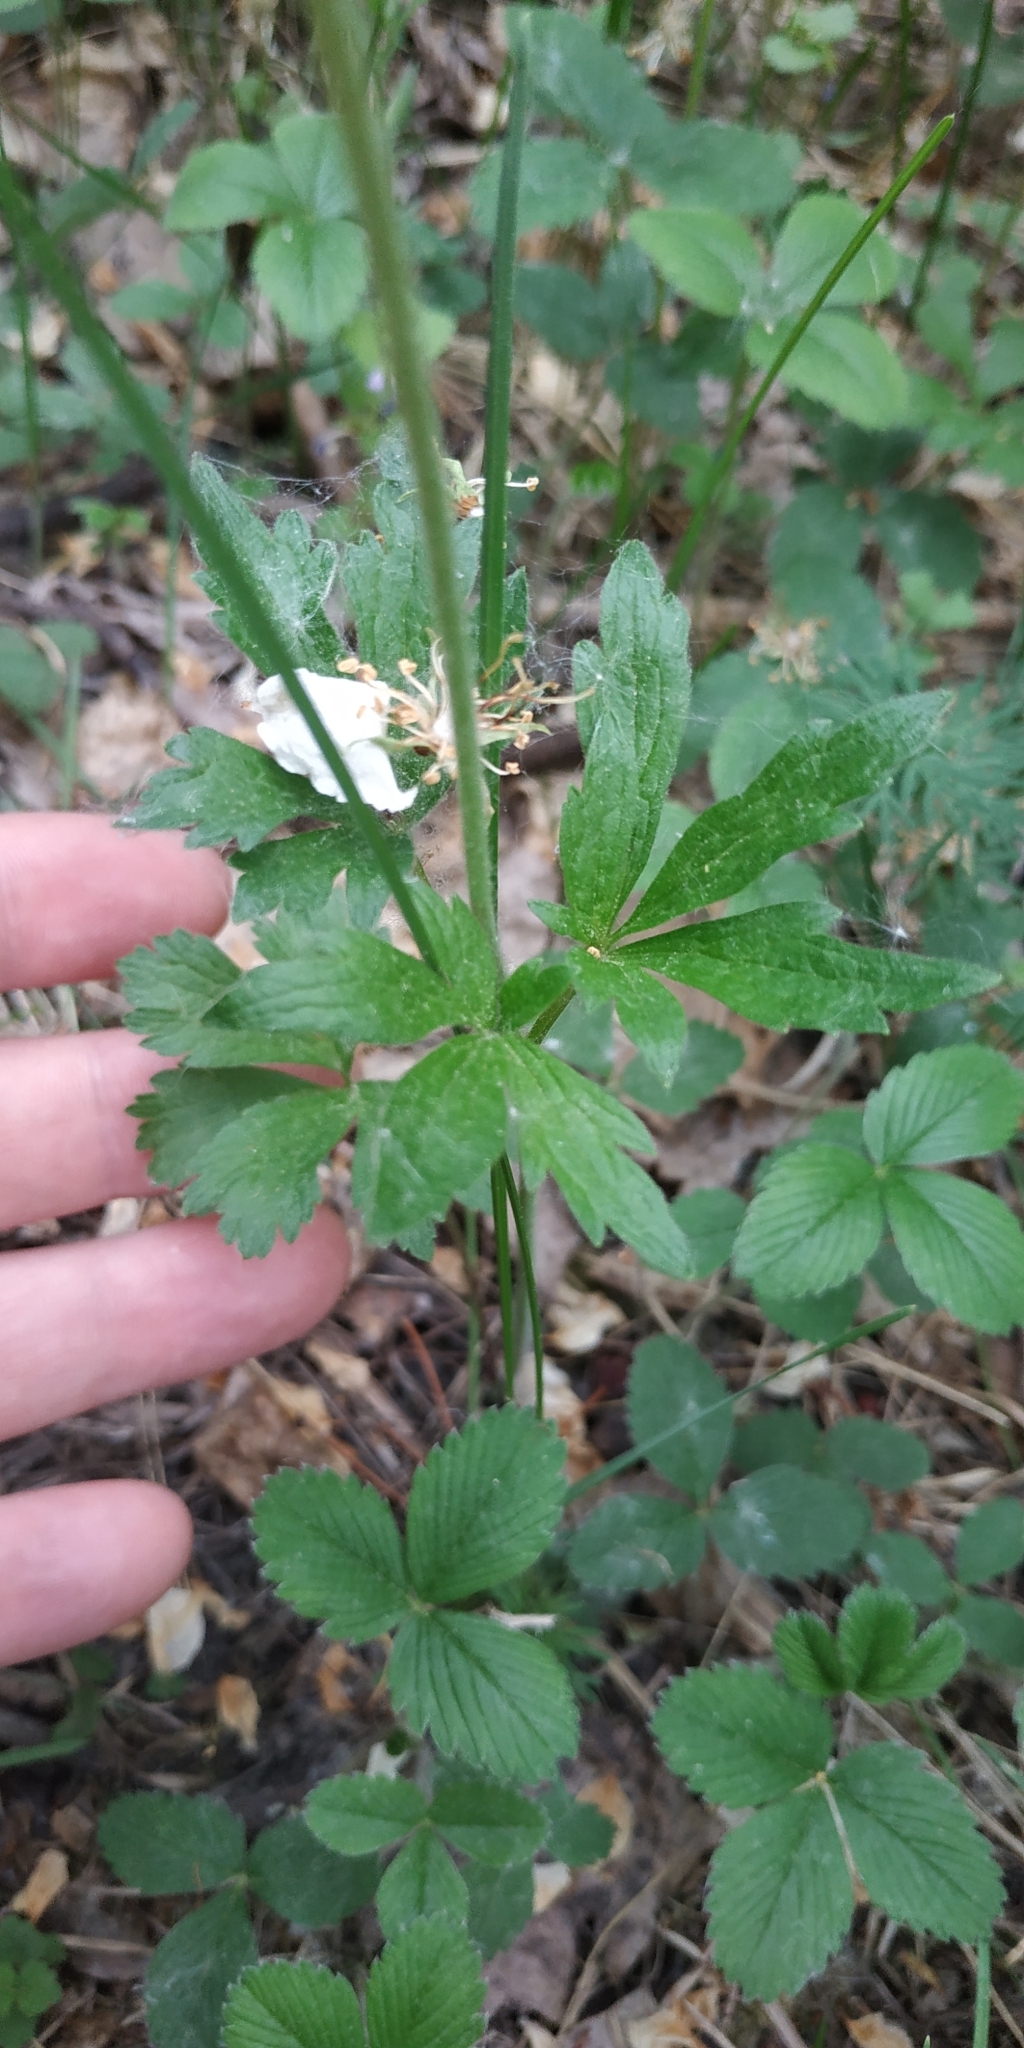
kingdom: Plantae
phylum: Tracheophyta
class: Magnoliopsida
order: Ranunculales
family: Ranunculaceae
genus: Anemone
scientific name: Anemone sylvestris
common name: Snowdrop anemone
